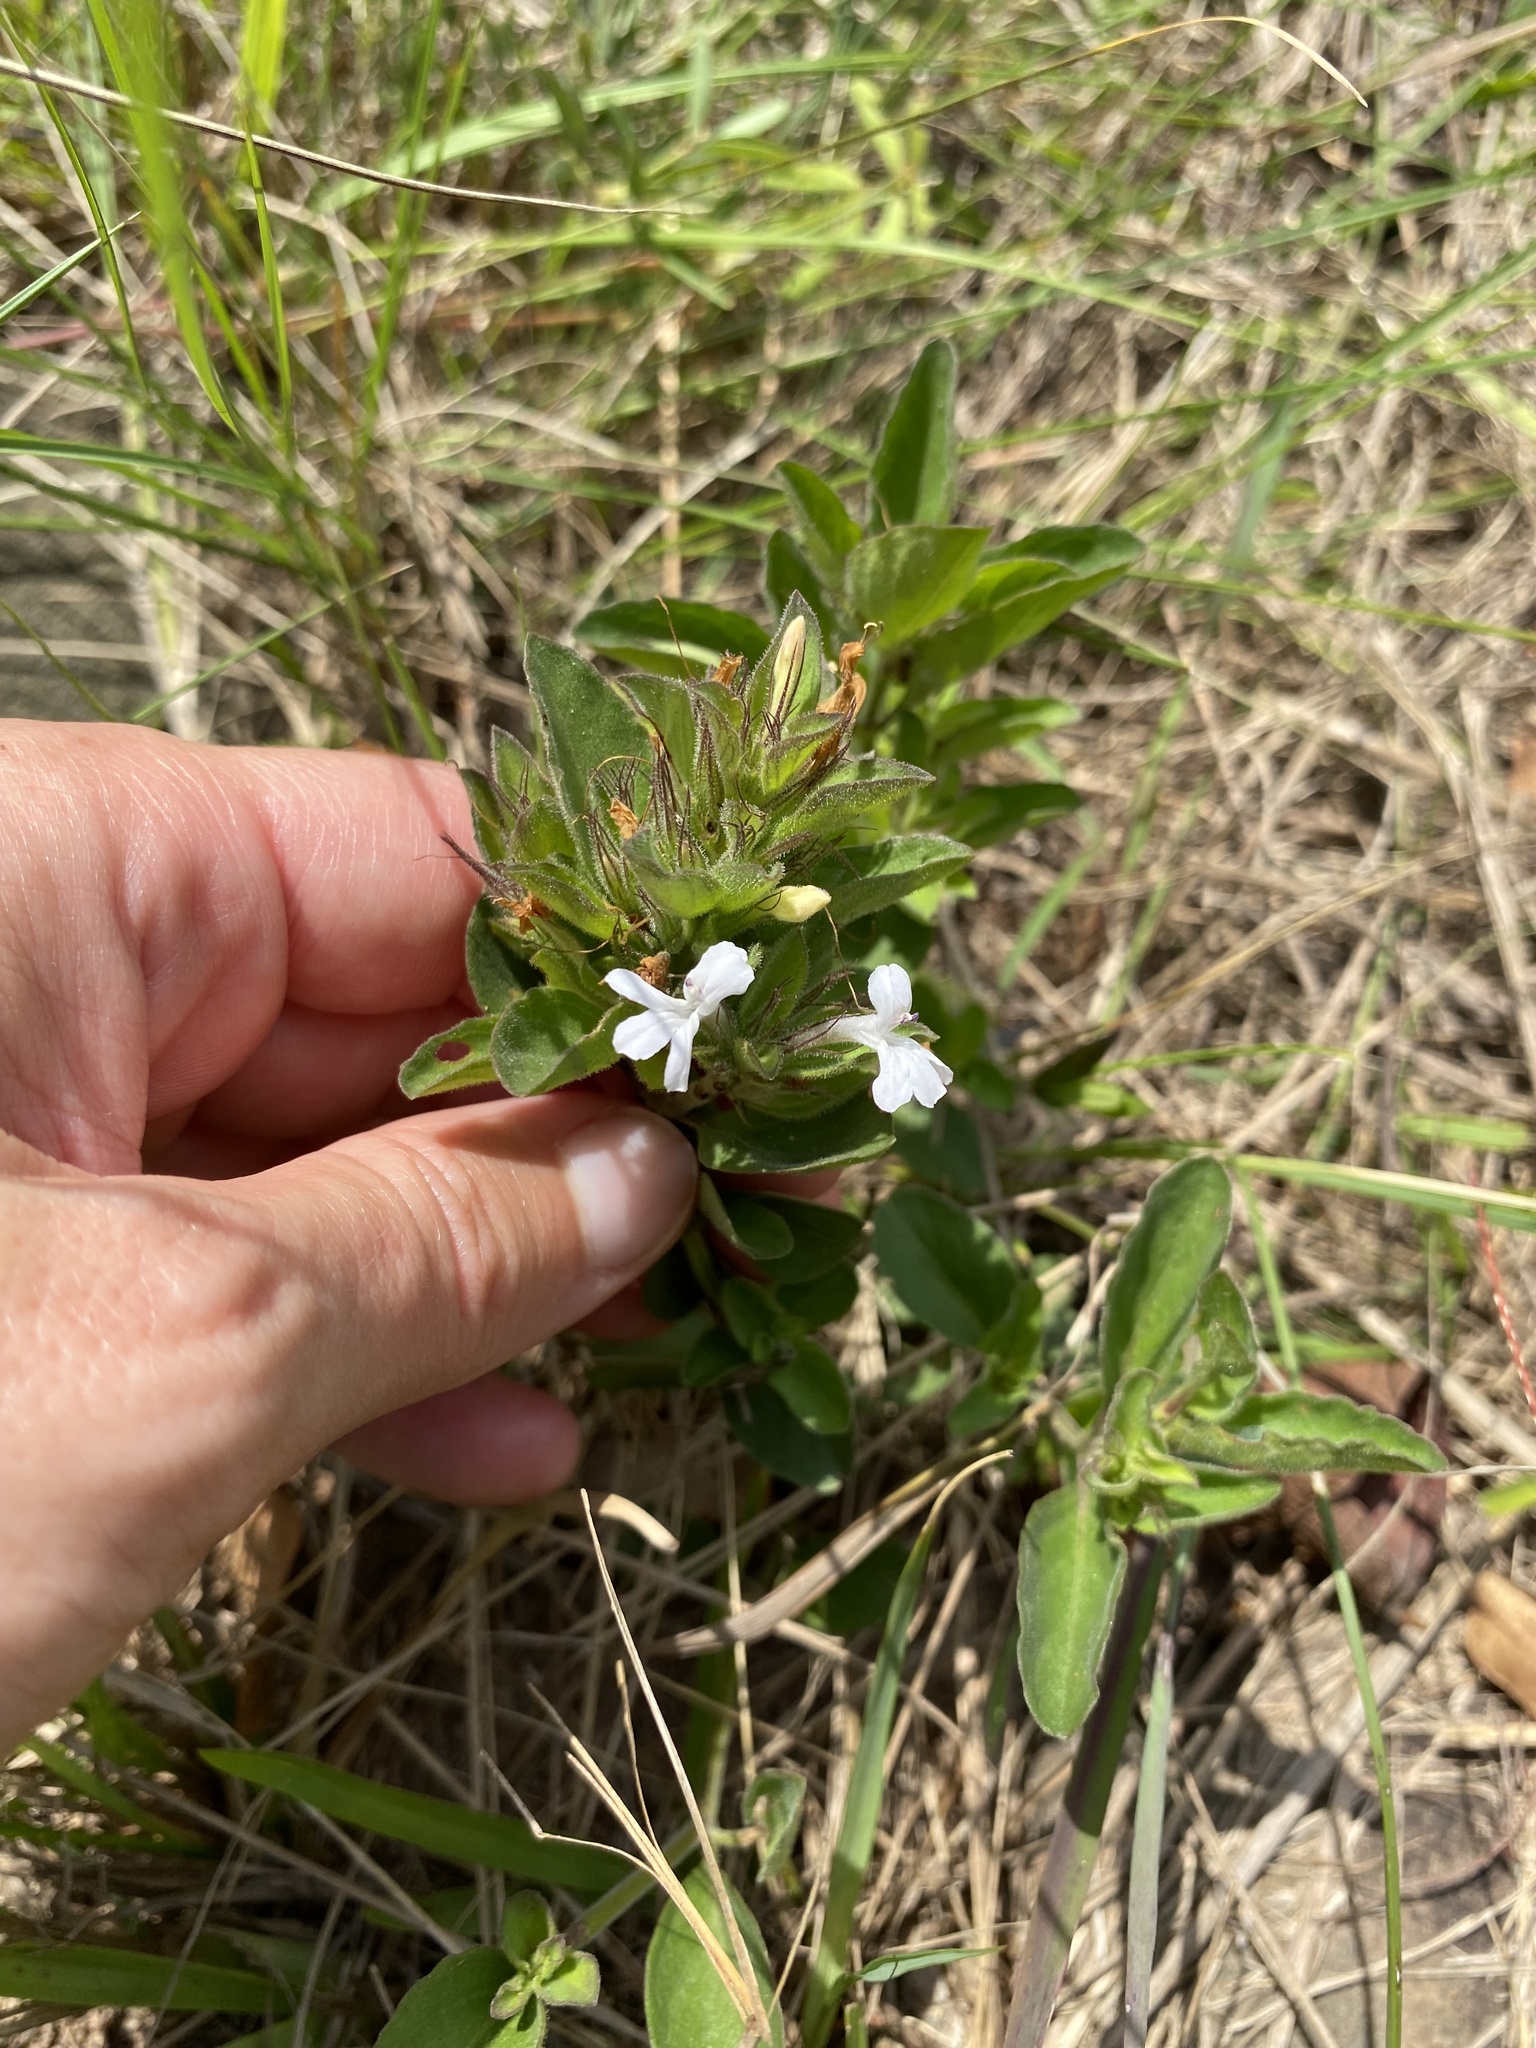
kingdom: Plantae
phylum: Tracheophyta
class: Magnoliopsida
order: Lamiales
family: Acanthaceae
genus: Dyschoriste
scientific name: Dyschoriste setigera
